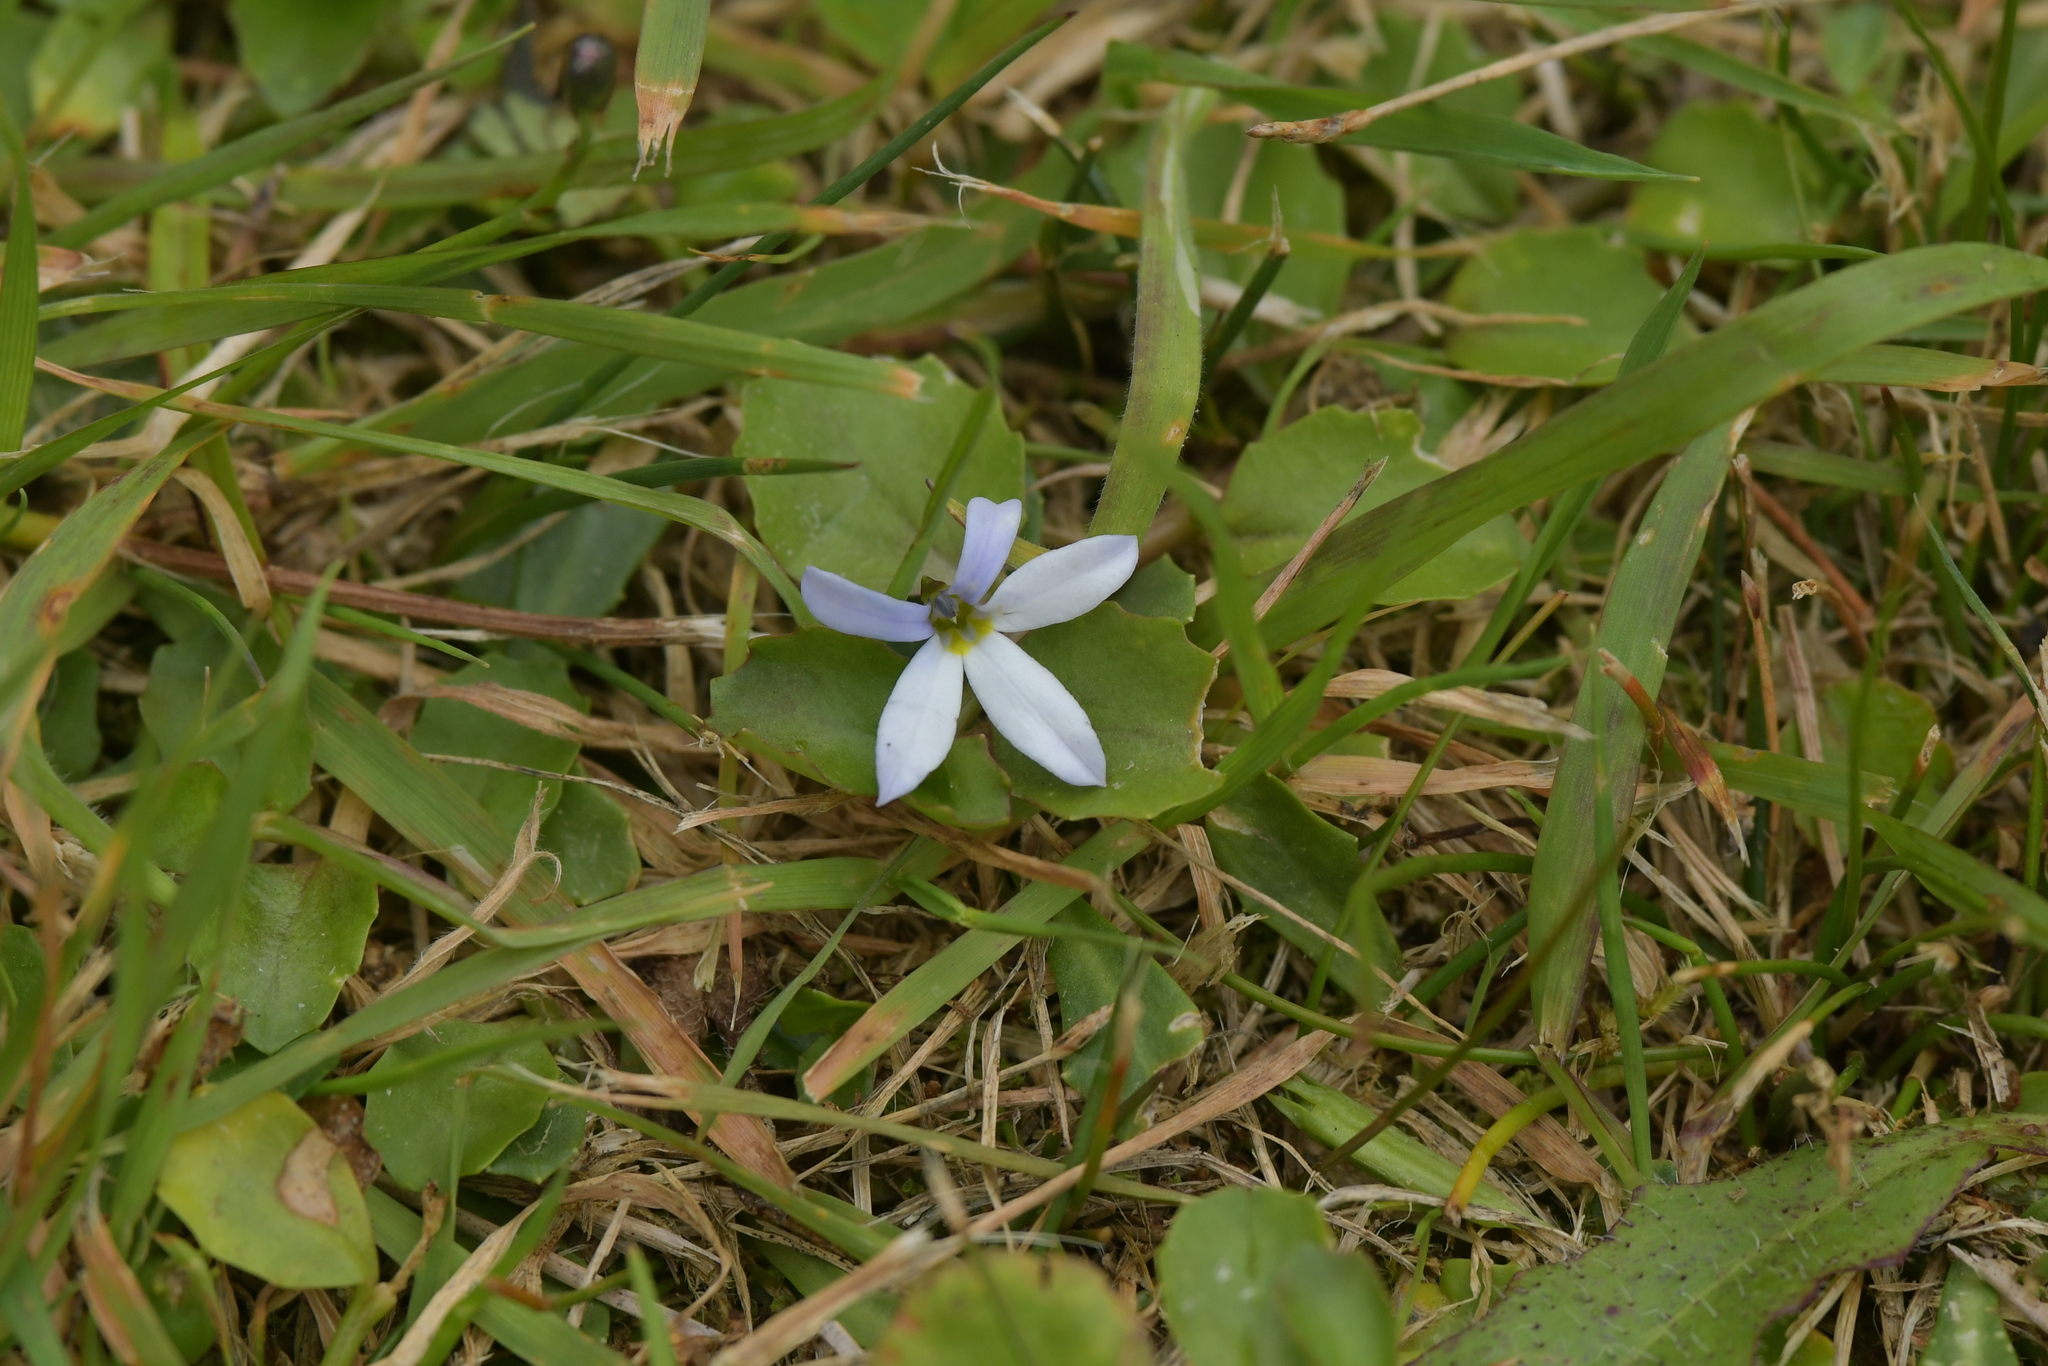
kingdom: Plantae
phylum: Tracheophyta
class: Magnoliopsida
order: Asterales
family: Campanulaceae
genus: Lobelia
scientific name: Lobelia arenaria
